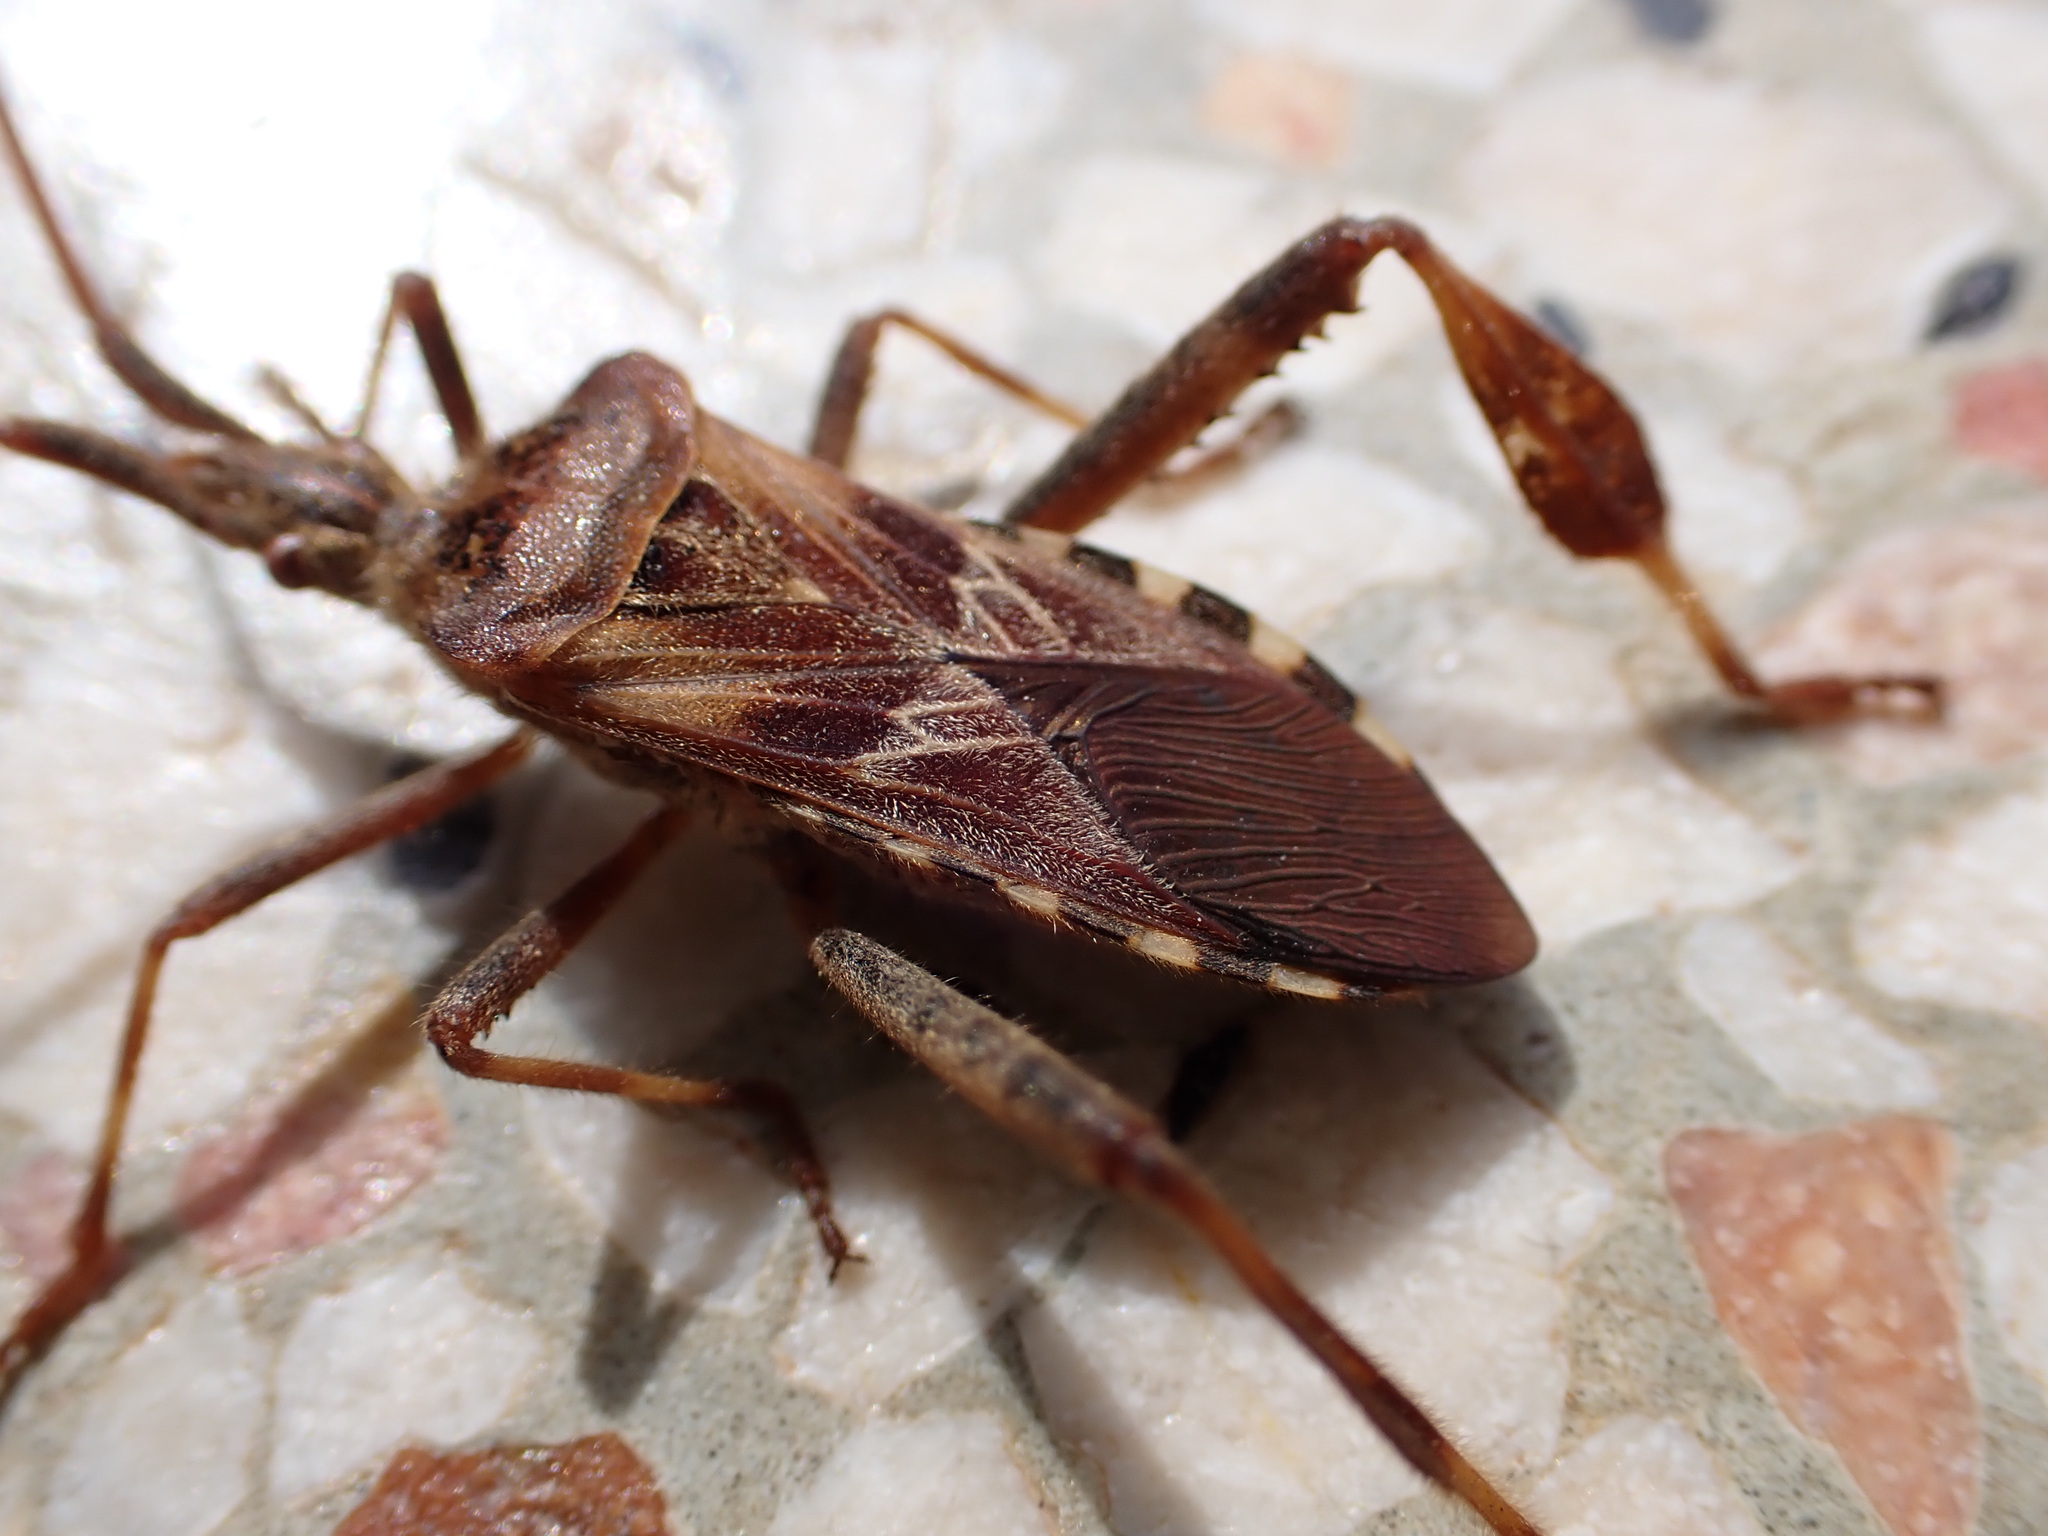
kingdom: Animalia
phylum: Arthropoda
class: Insecta
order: Hemiptera
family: Coreidae
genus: Leptoglossus
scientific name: Leptoglossus occidentalis
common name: Western conifer-seed bug
